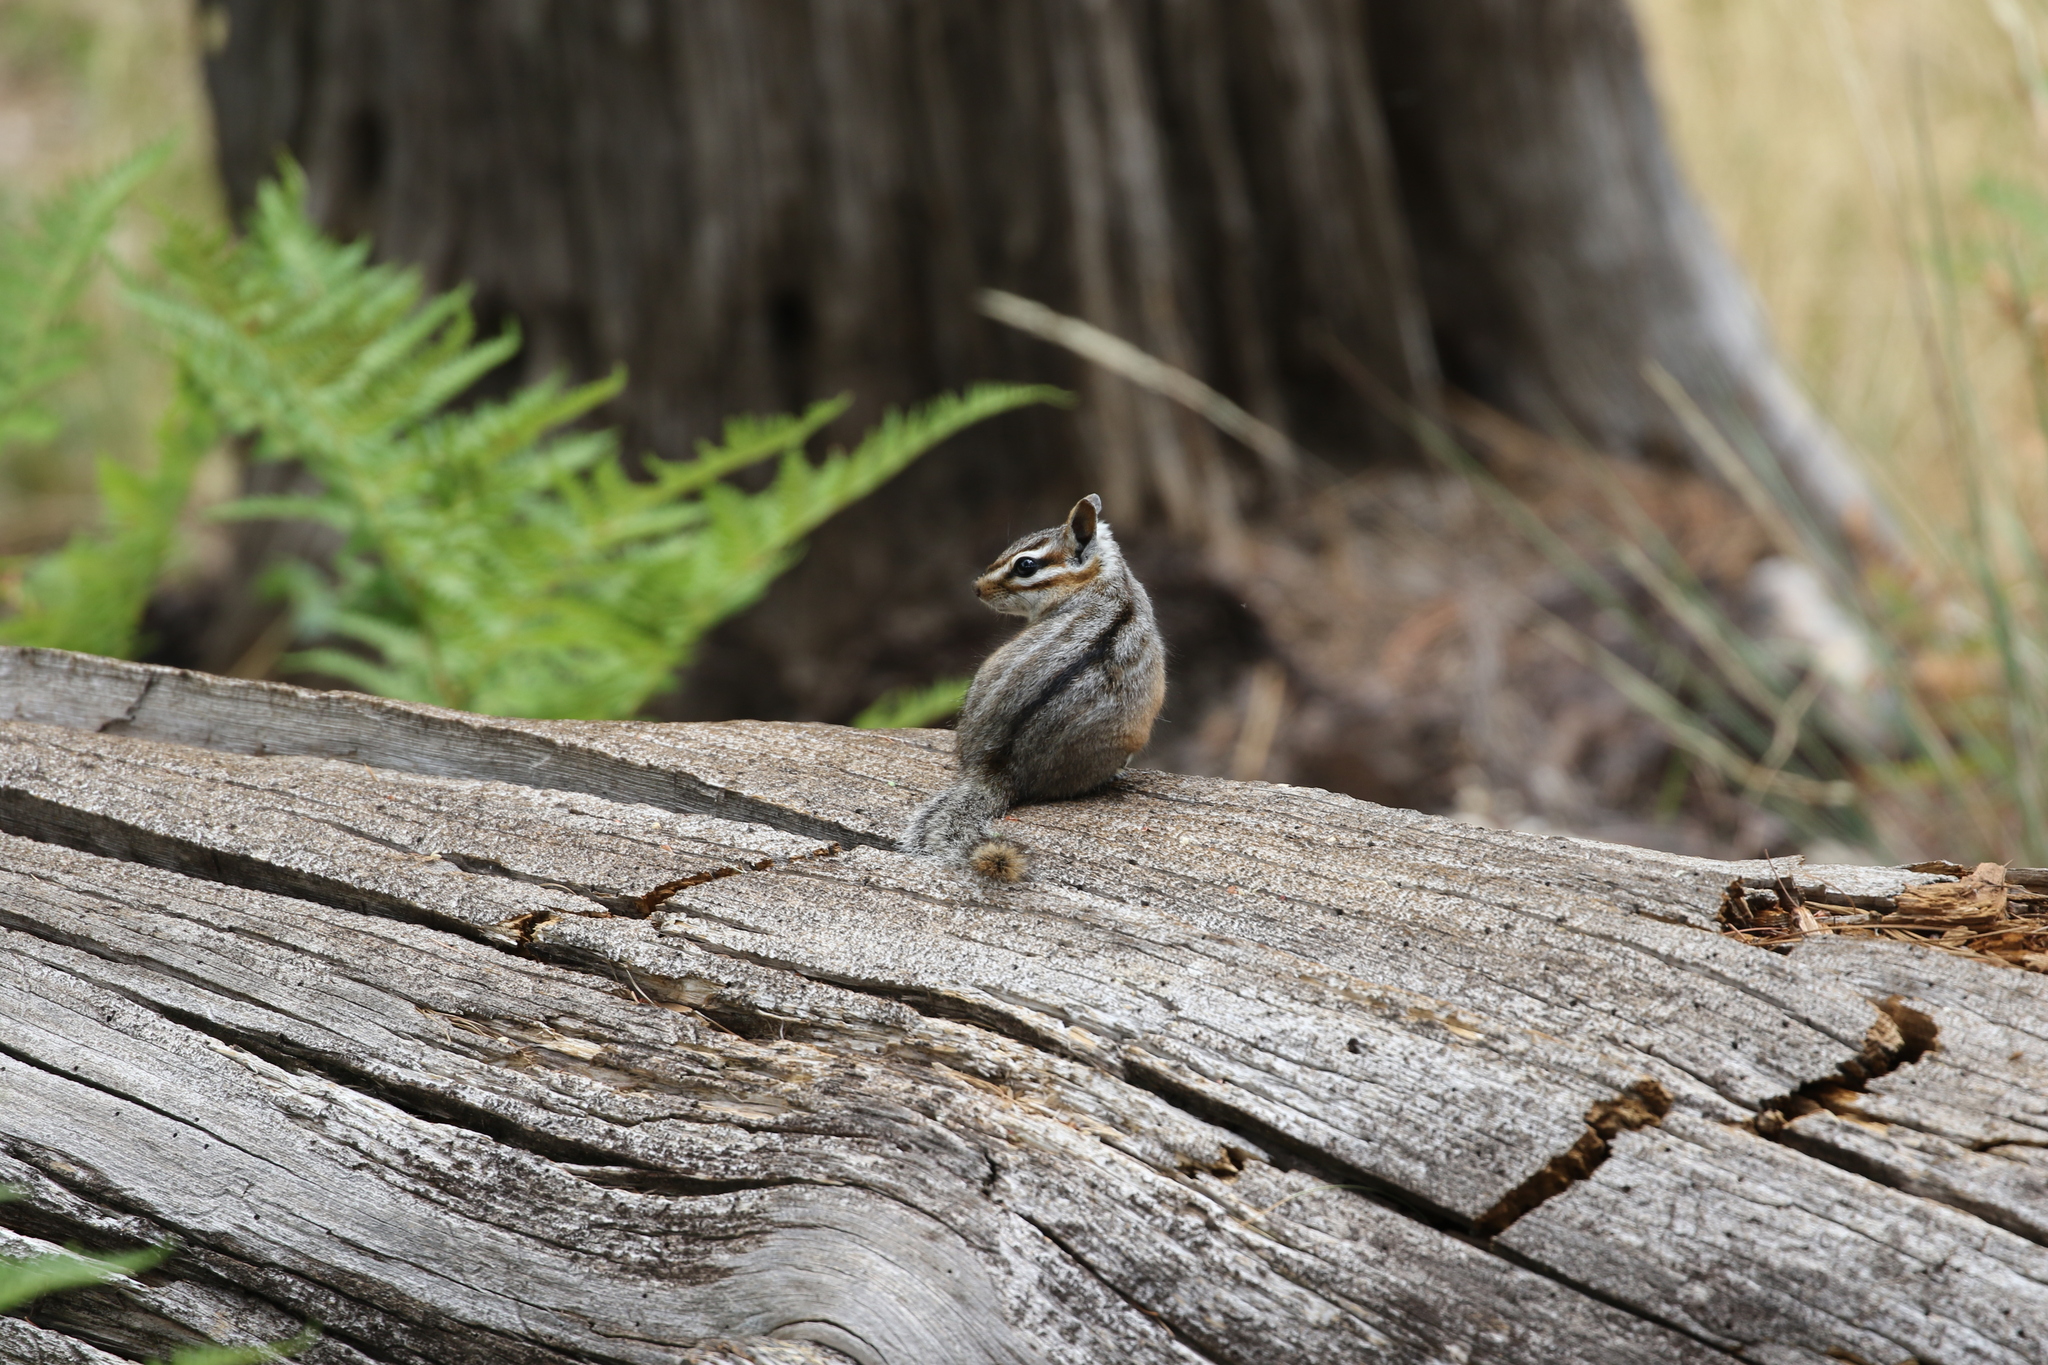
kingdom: Animalia
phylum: Chordata
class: Mammalia
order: Rodentia
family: Sciuridae
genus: Tamias
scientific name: Tamias dorsalis
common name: Cliff chipmunk
